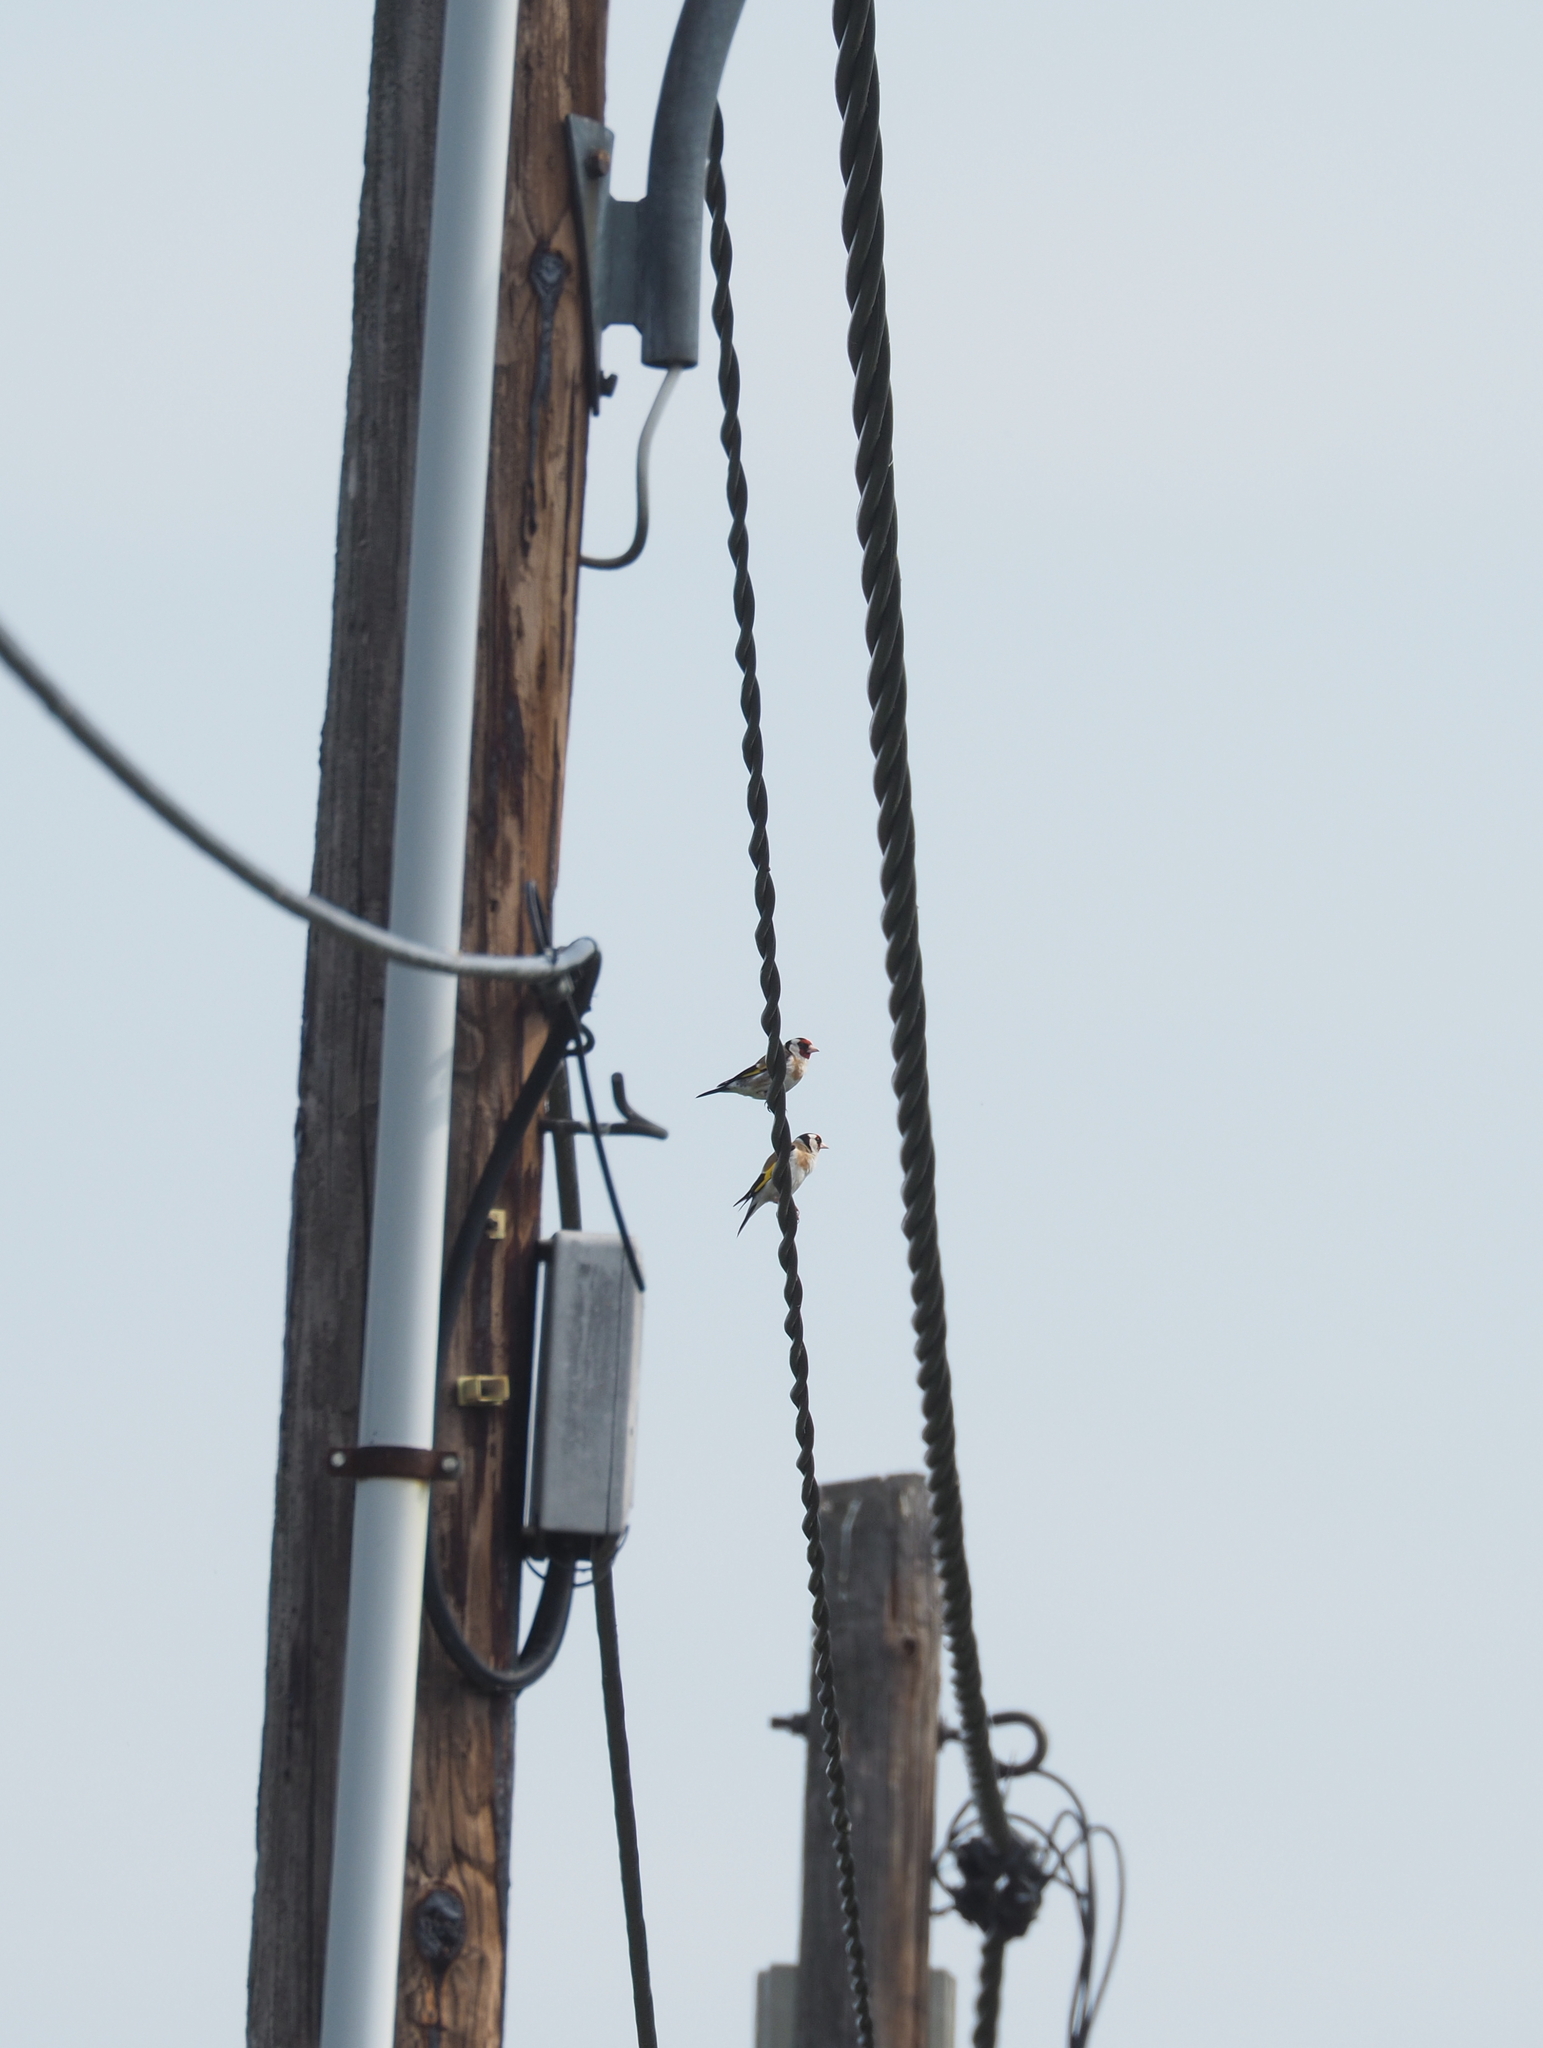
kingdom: Animalia
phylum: Chordata
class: Aves
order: Passeriformes
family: Fringillidae
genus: Carduelis
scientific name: Carduelis carduelis
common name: European goldfinch
